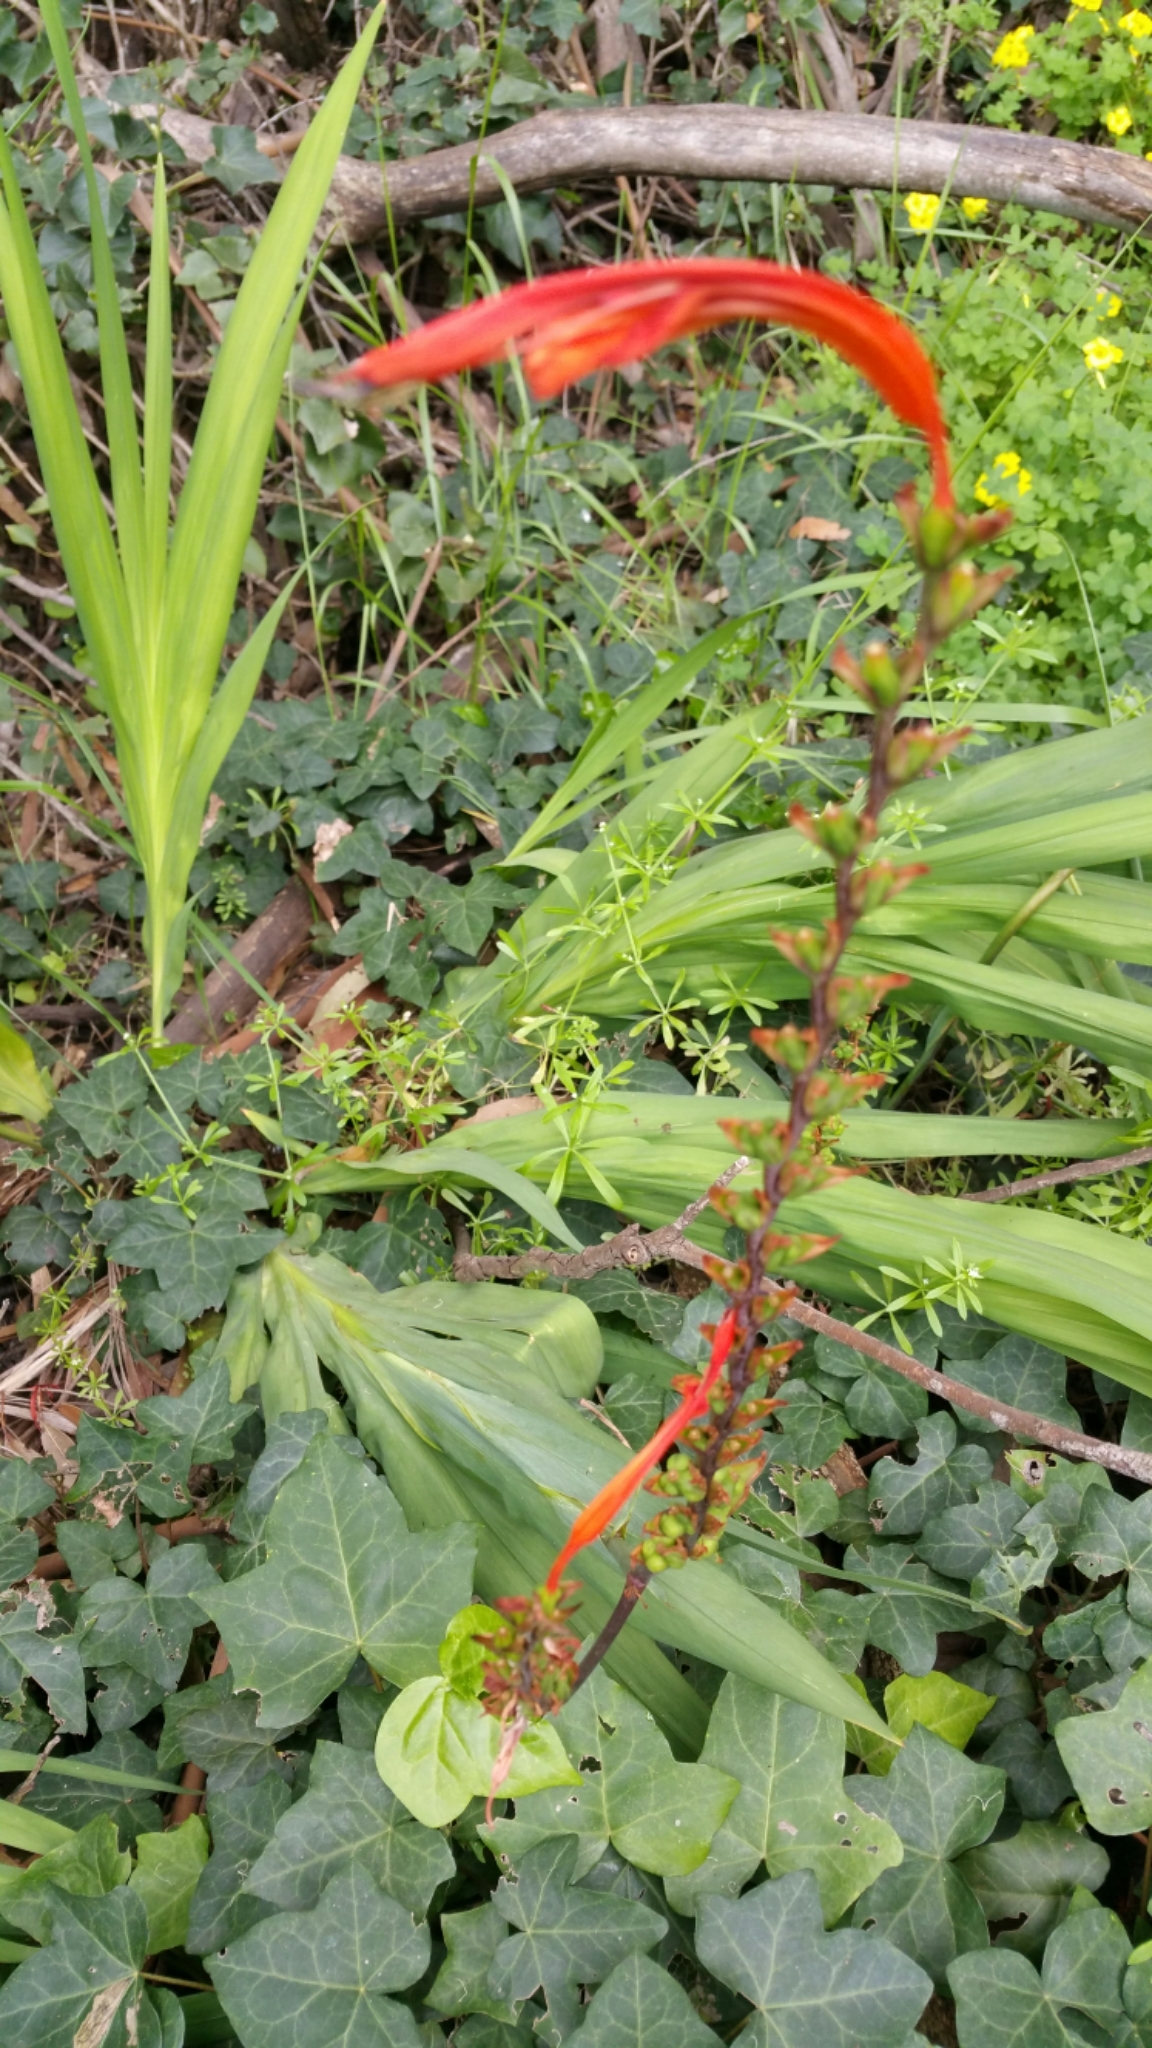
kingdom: Plantae
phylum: Tracheophyta
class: Liliopsida
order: Asparagales
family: Iridaceae
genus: Chasmanthe
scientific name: Chasmanthe floribunda
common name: African cornflag
